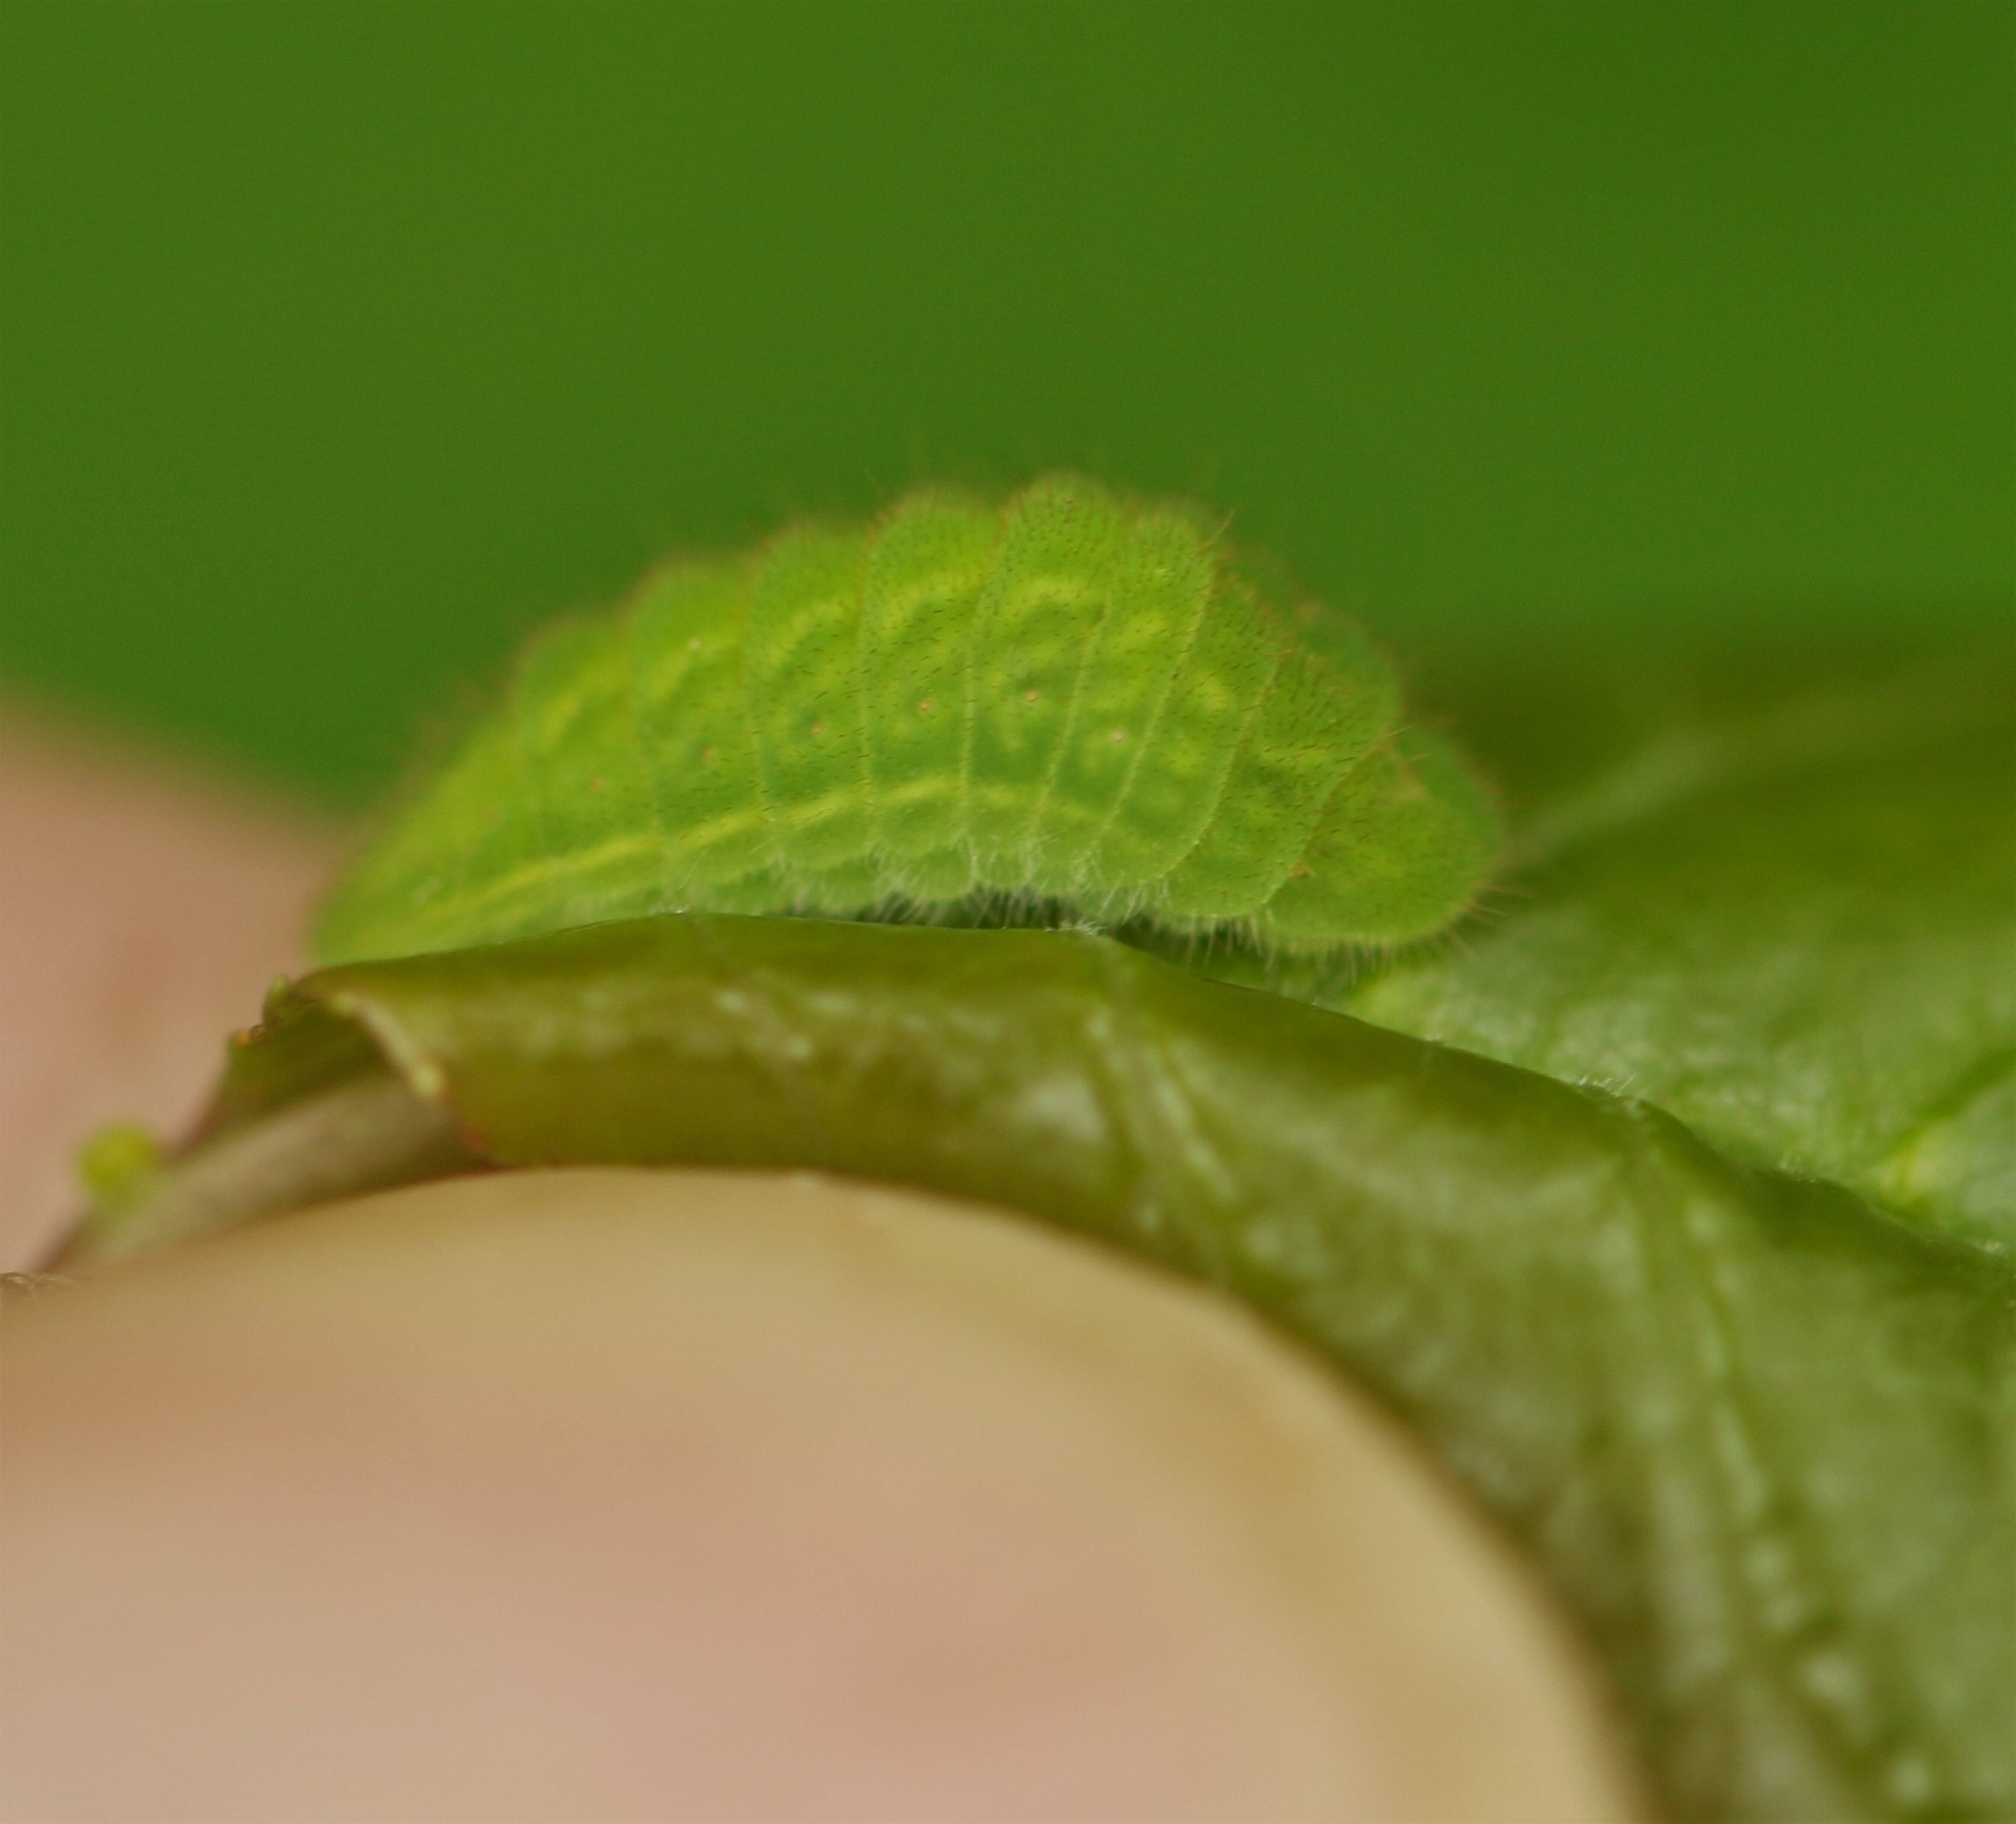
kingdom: Animalia
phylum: Arthropoda
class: Insecta
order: Lepidoptera
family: Lycaenidae
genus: Satyrium
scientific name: Satyrium liparops
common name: Striped hairstreak
